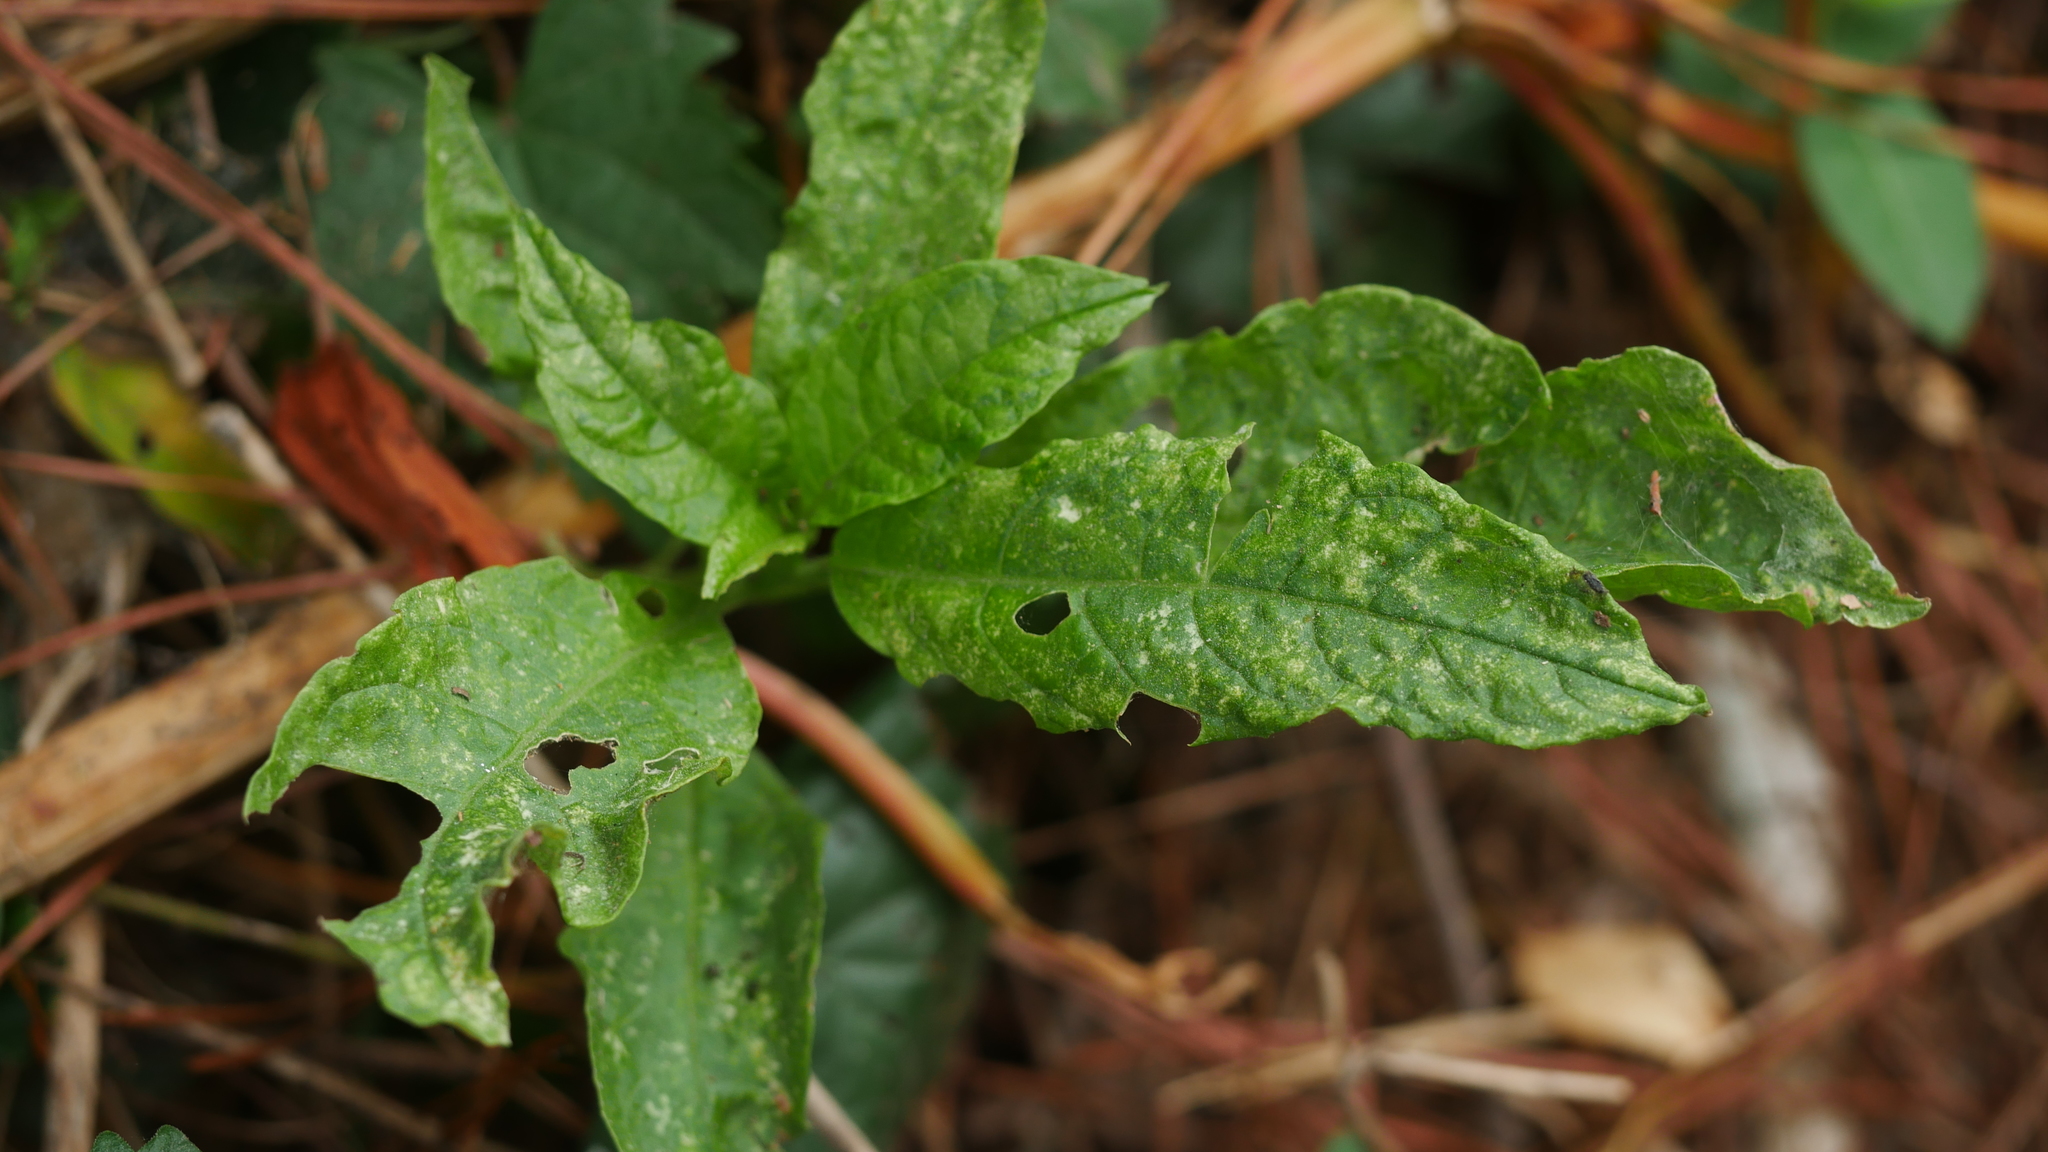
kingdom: Viruses
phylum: Pisuviricota
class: Stelpaviricetes
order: Patatavirales
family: Potyviridae
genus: Potyvirus
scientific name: Potyvirus Pokeweed mosaic virus
